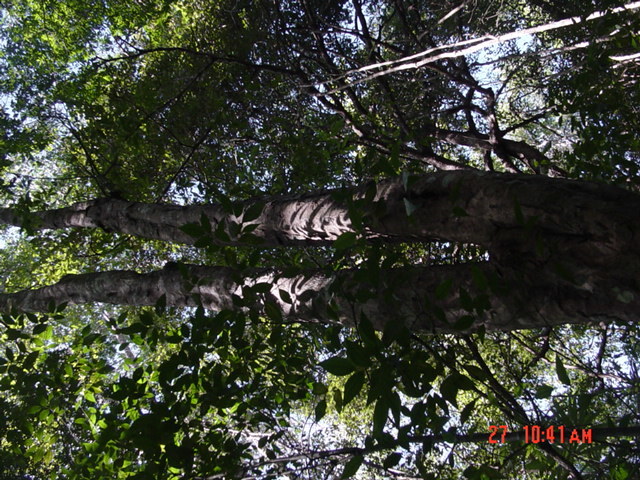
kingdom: Plantae
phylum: Tracheophyta
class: Magnoliopsida
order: Sapindales
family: Sapindaceae
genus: Blomia
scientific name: Blomia prisca
